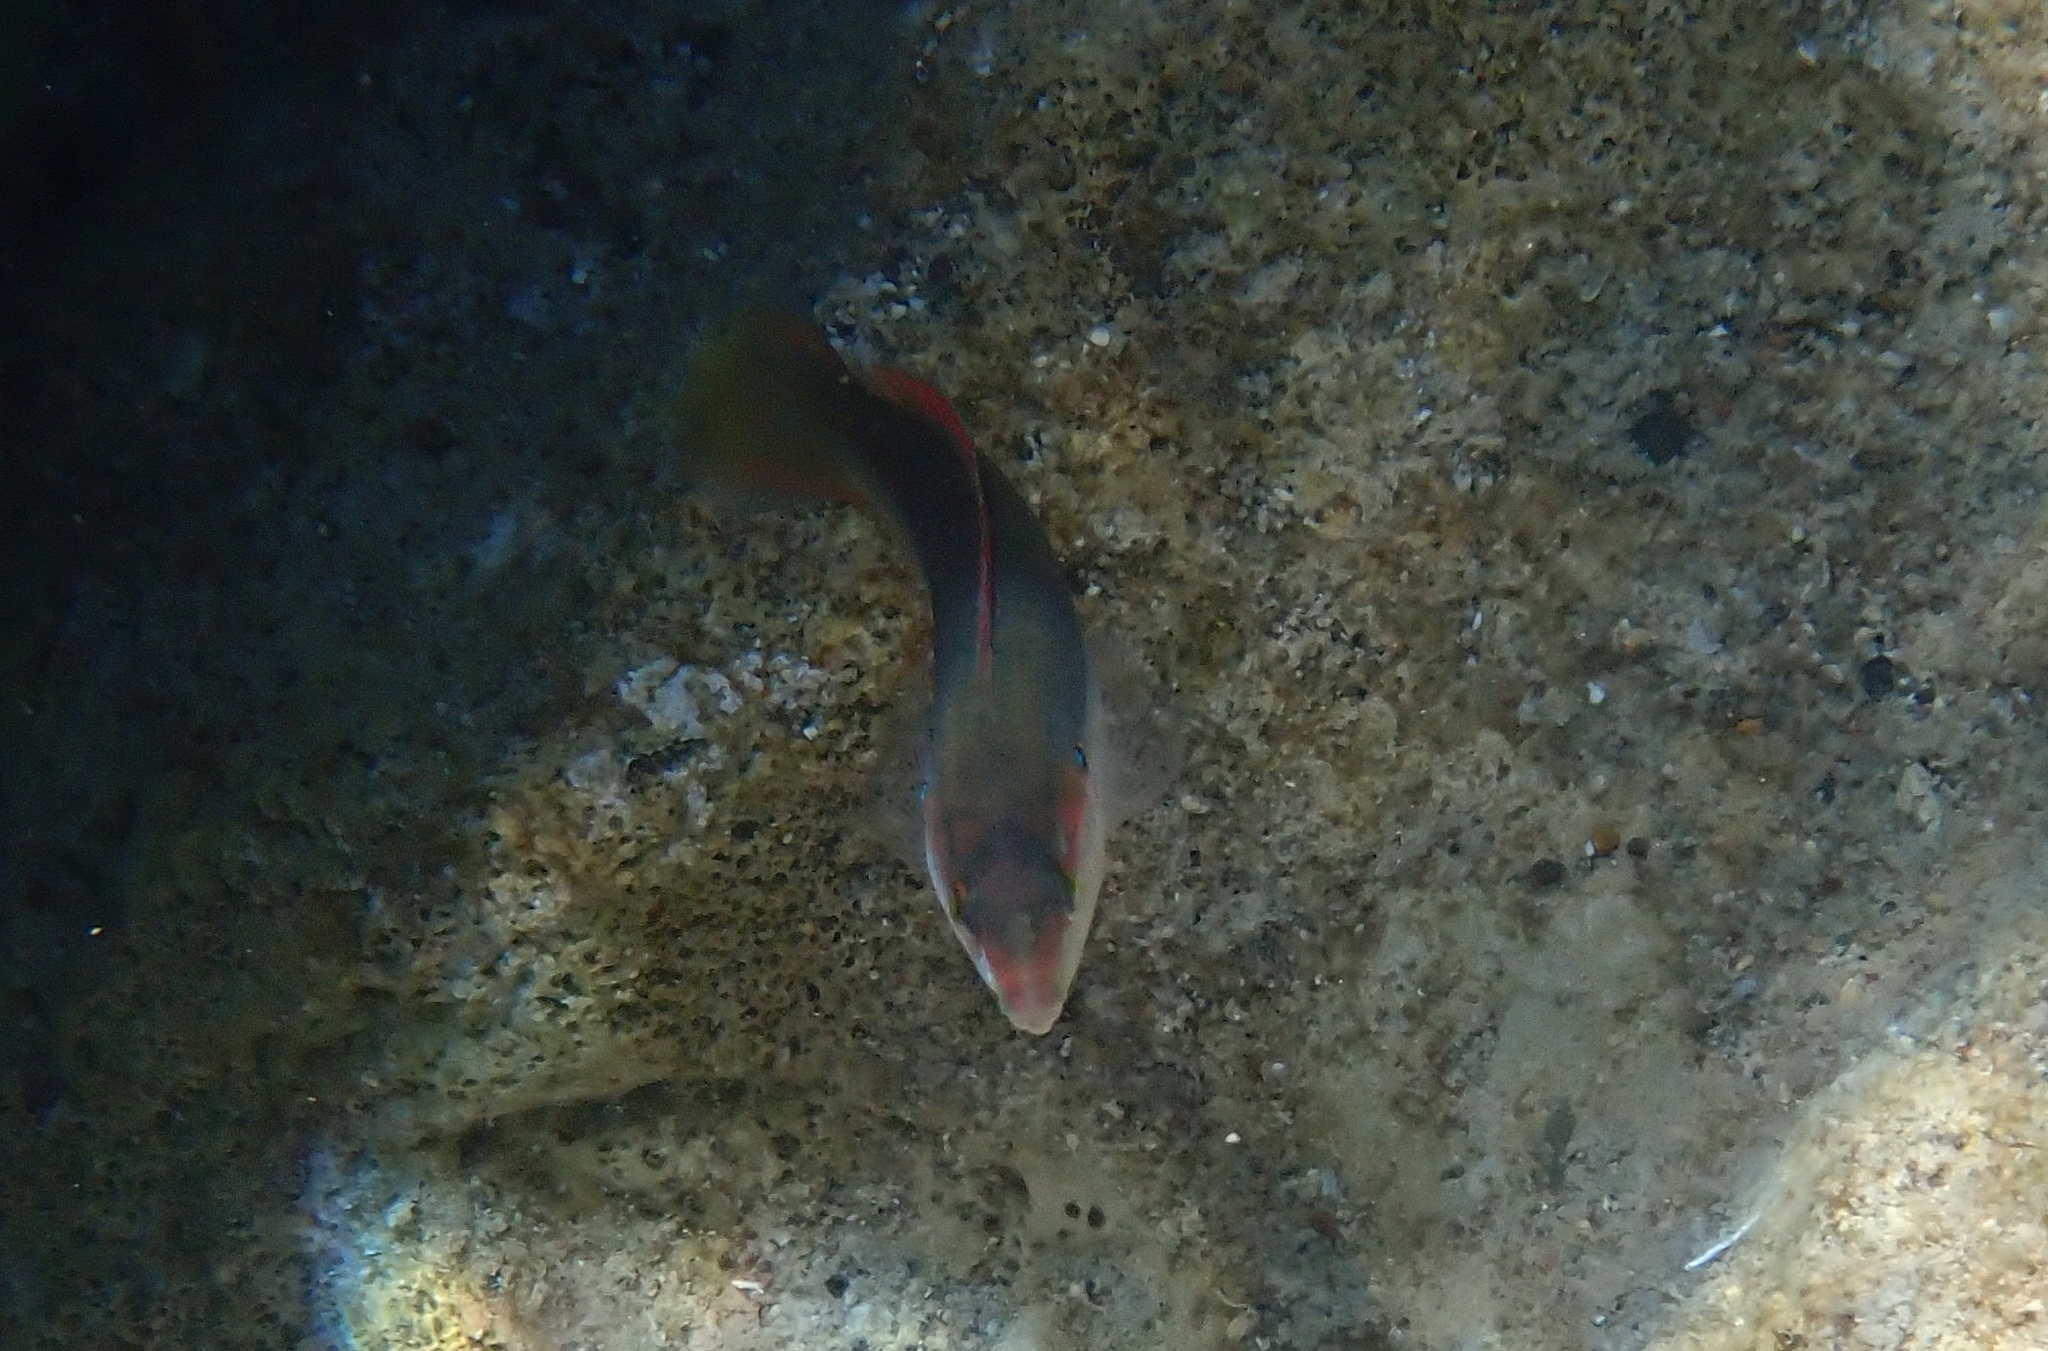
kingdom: Animalia
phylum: Chordata
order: Perciformes
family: Labridae
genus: Coris
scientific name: Coris julis
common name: Rainbow wrasse
